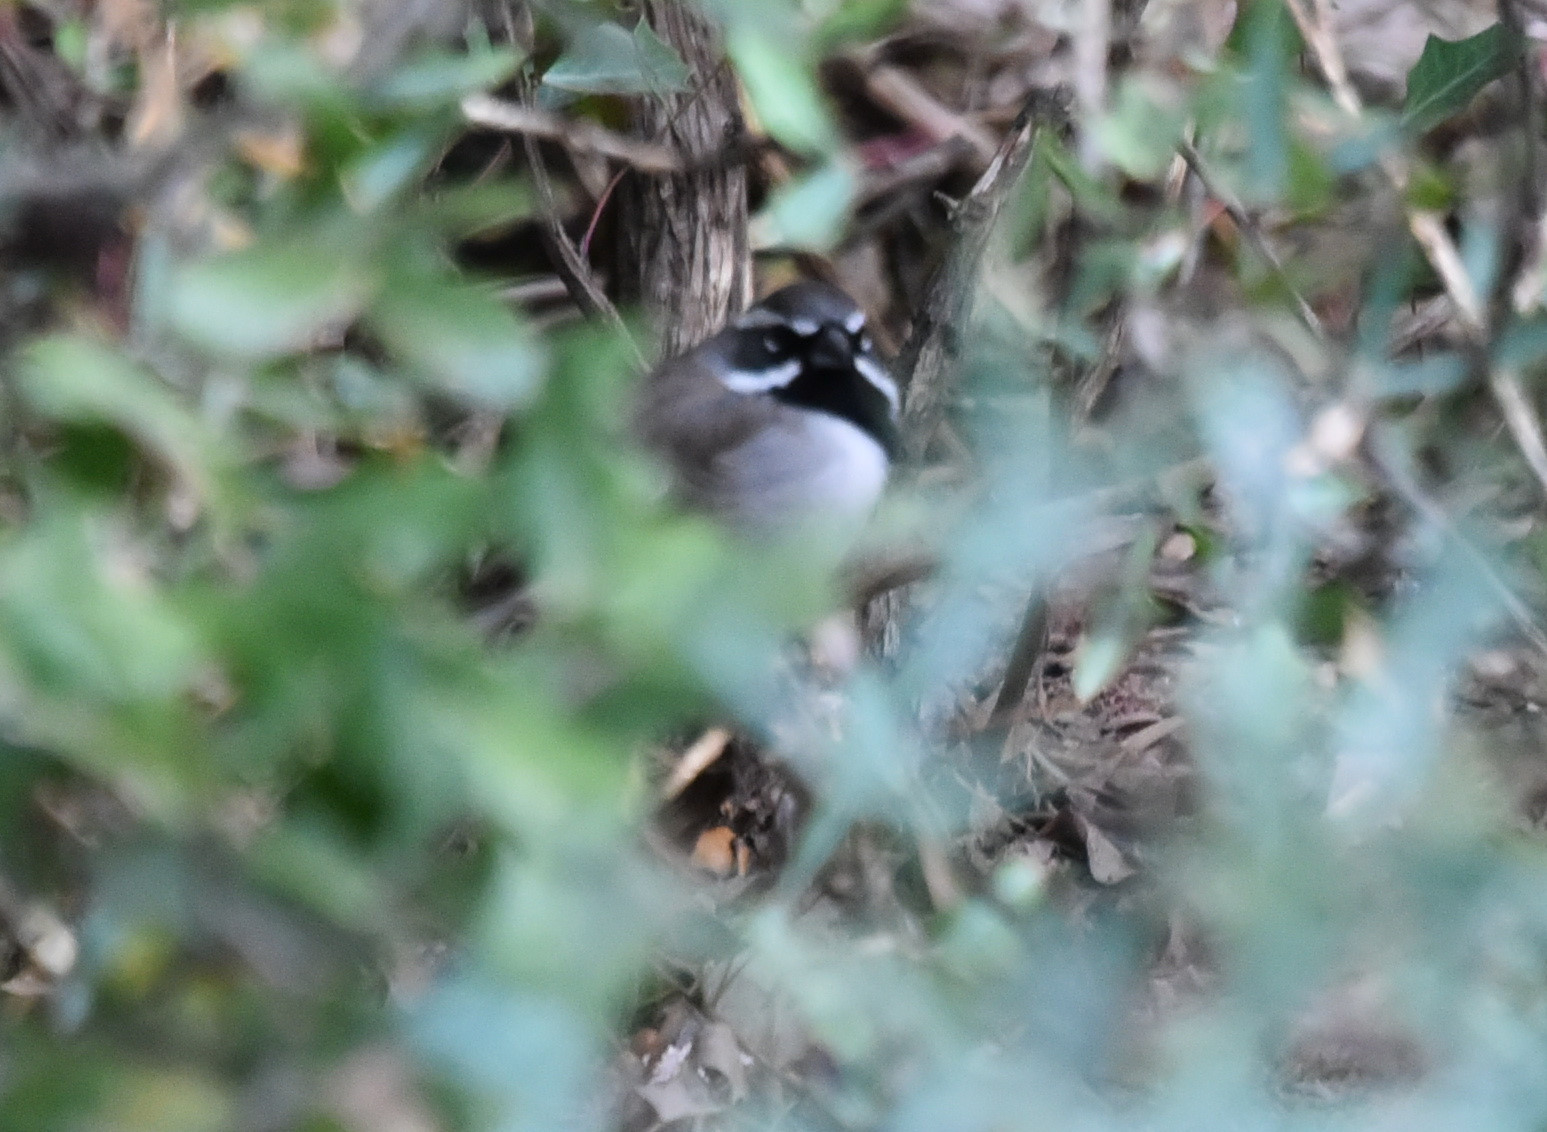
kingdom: Animalia
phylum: Chordata
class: Aves
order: Passeriformes
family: Passerellidae
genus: Amphispiza
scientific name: Amphispiza bilineata
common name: Black-throated sparrow
